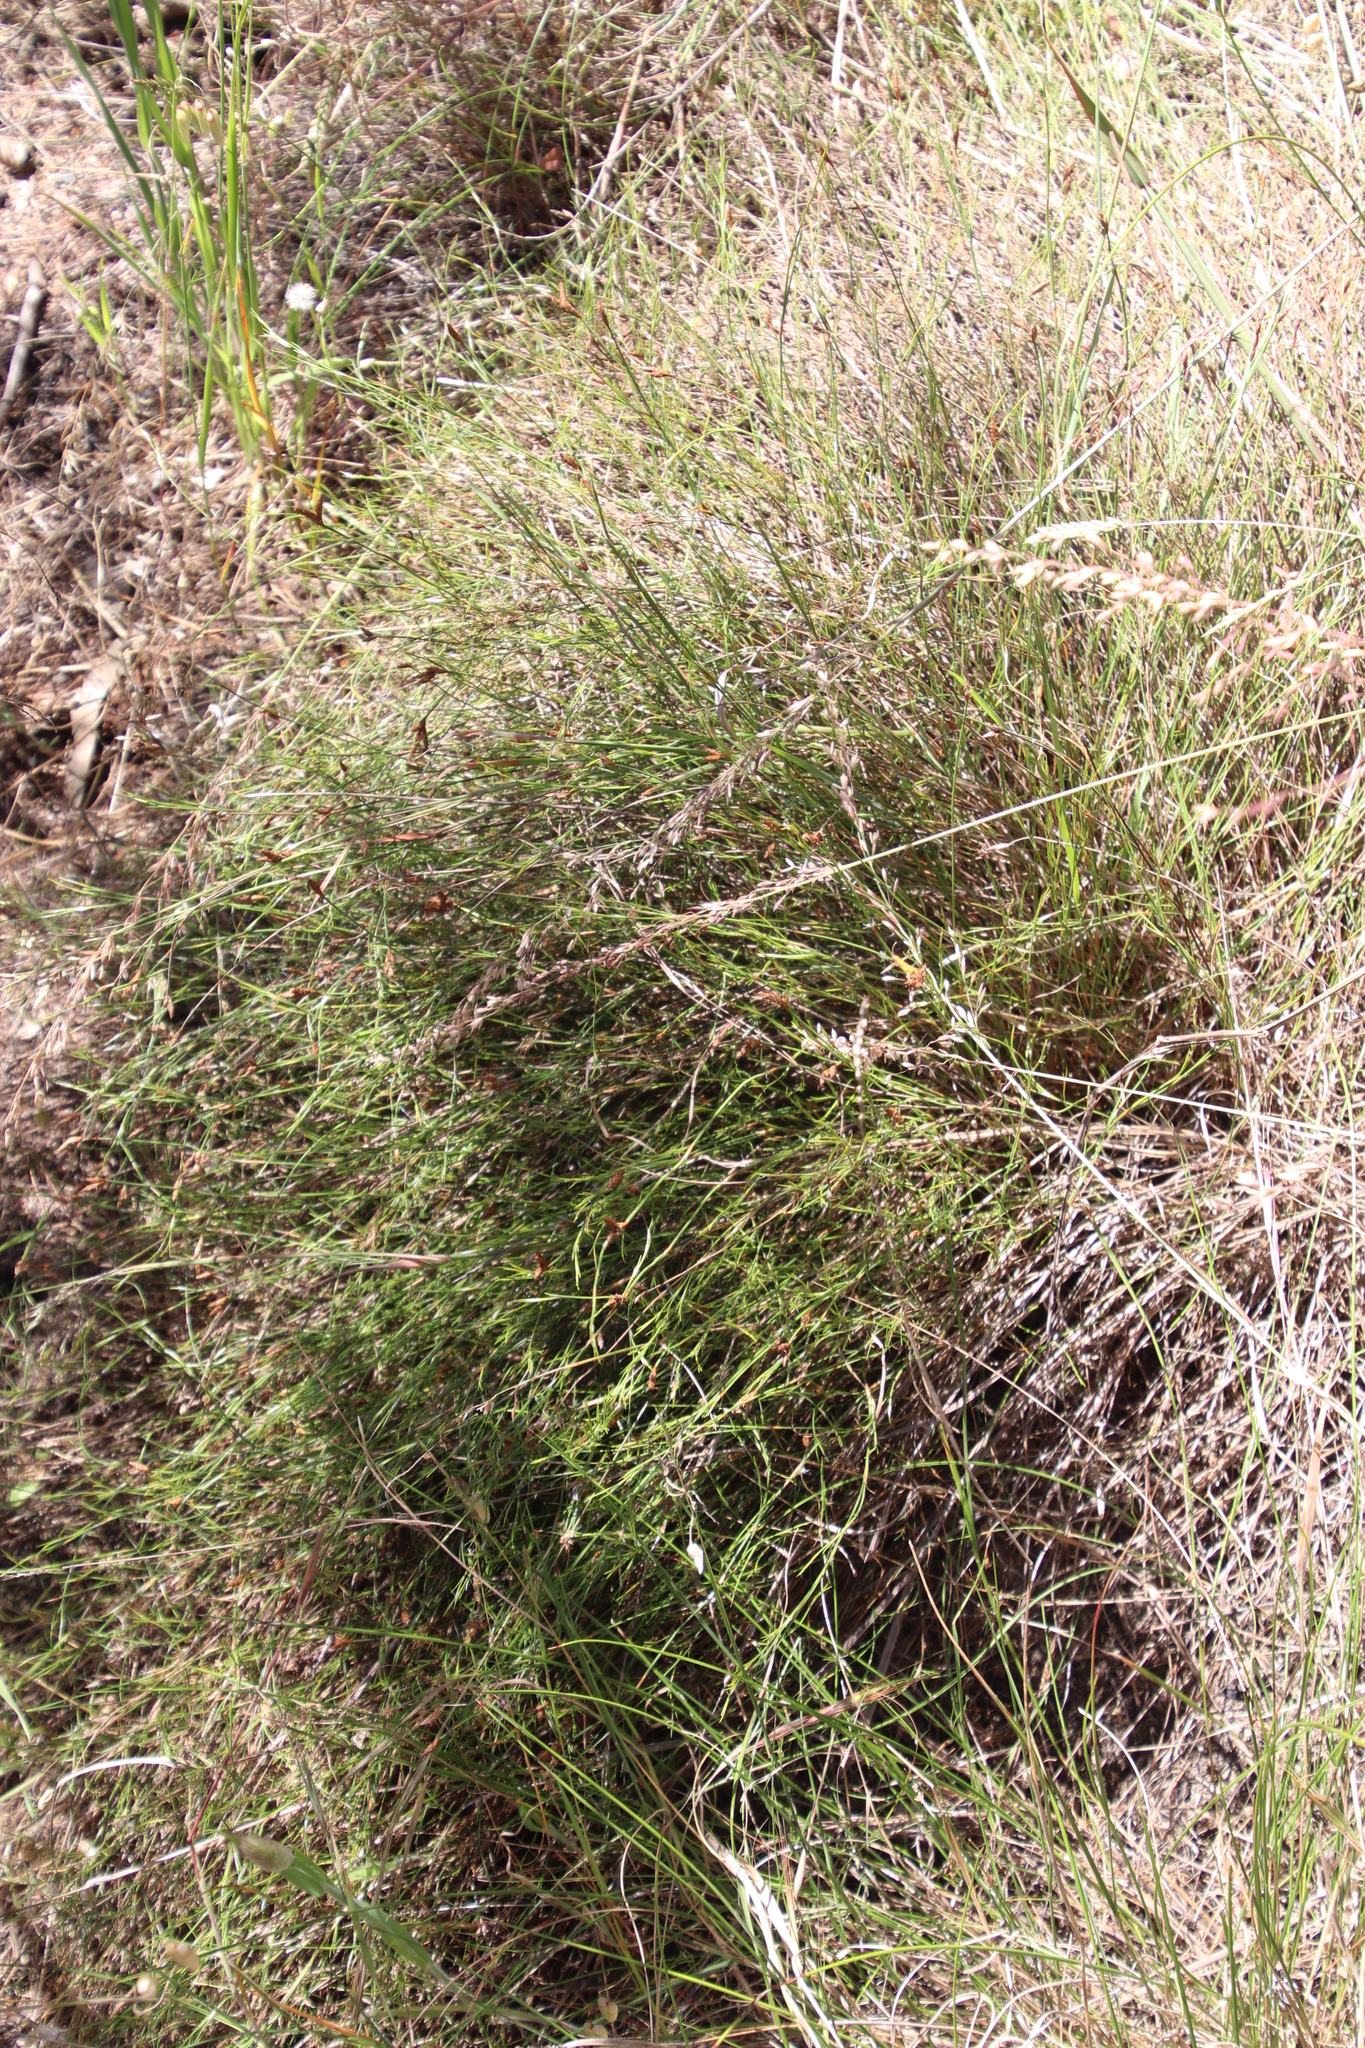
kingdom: Plantae
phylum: Tracheophyta
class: Liliopsida
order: Poales
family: Restionaceae
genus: Restio
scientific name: Restio capensis
